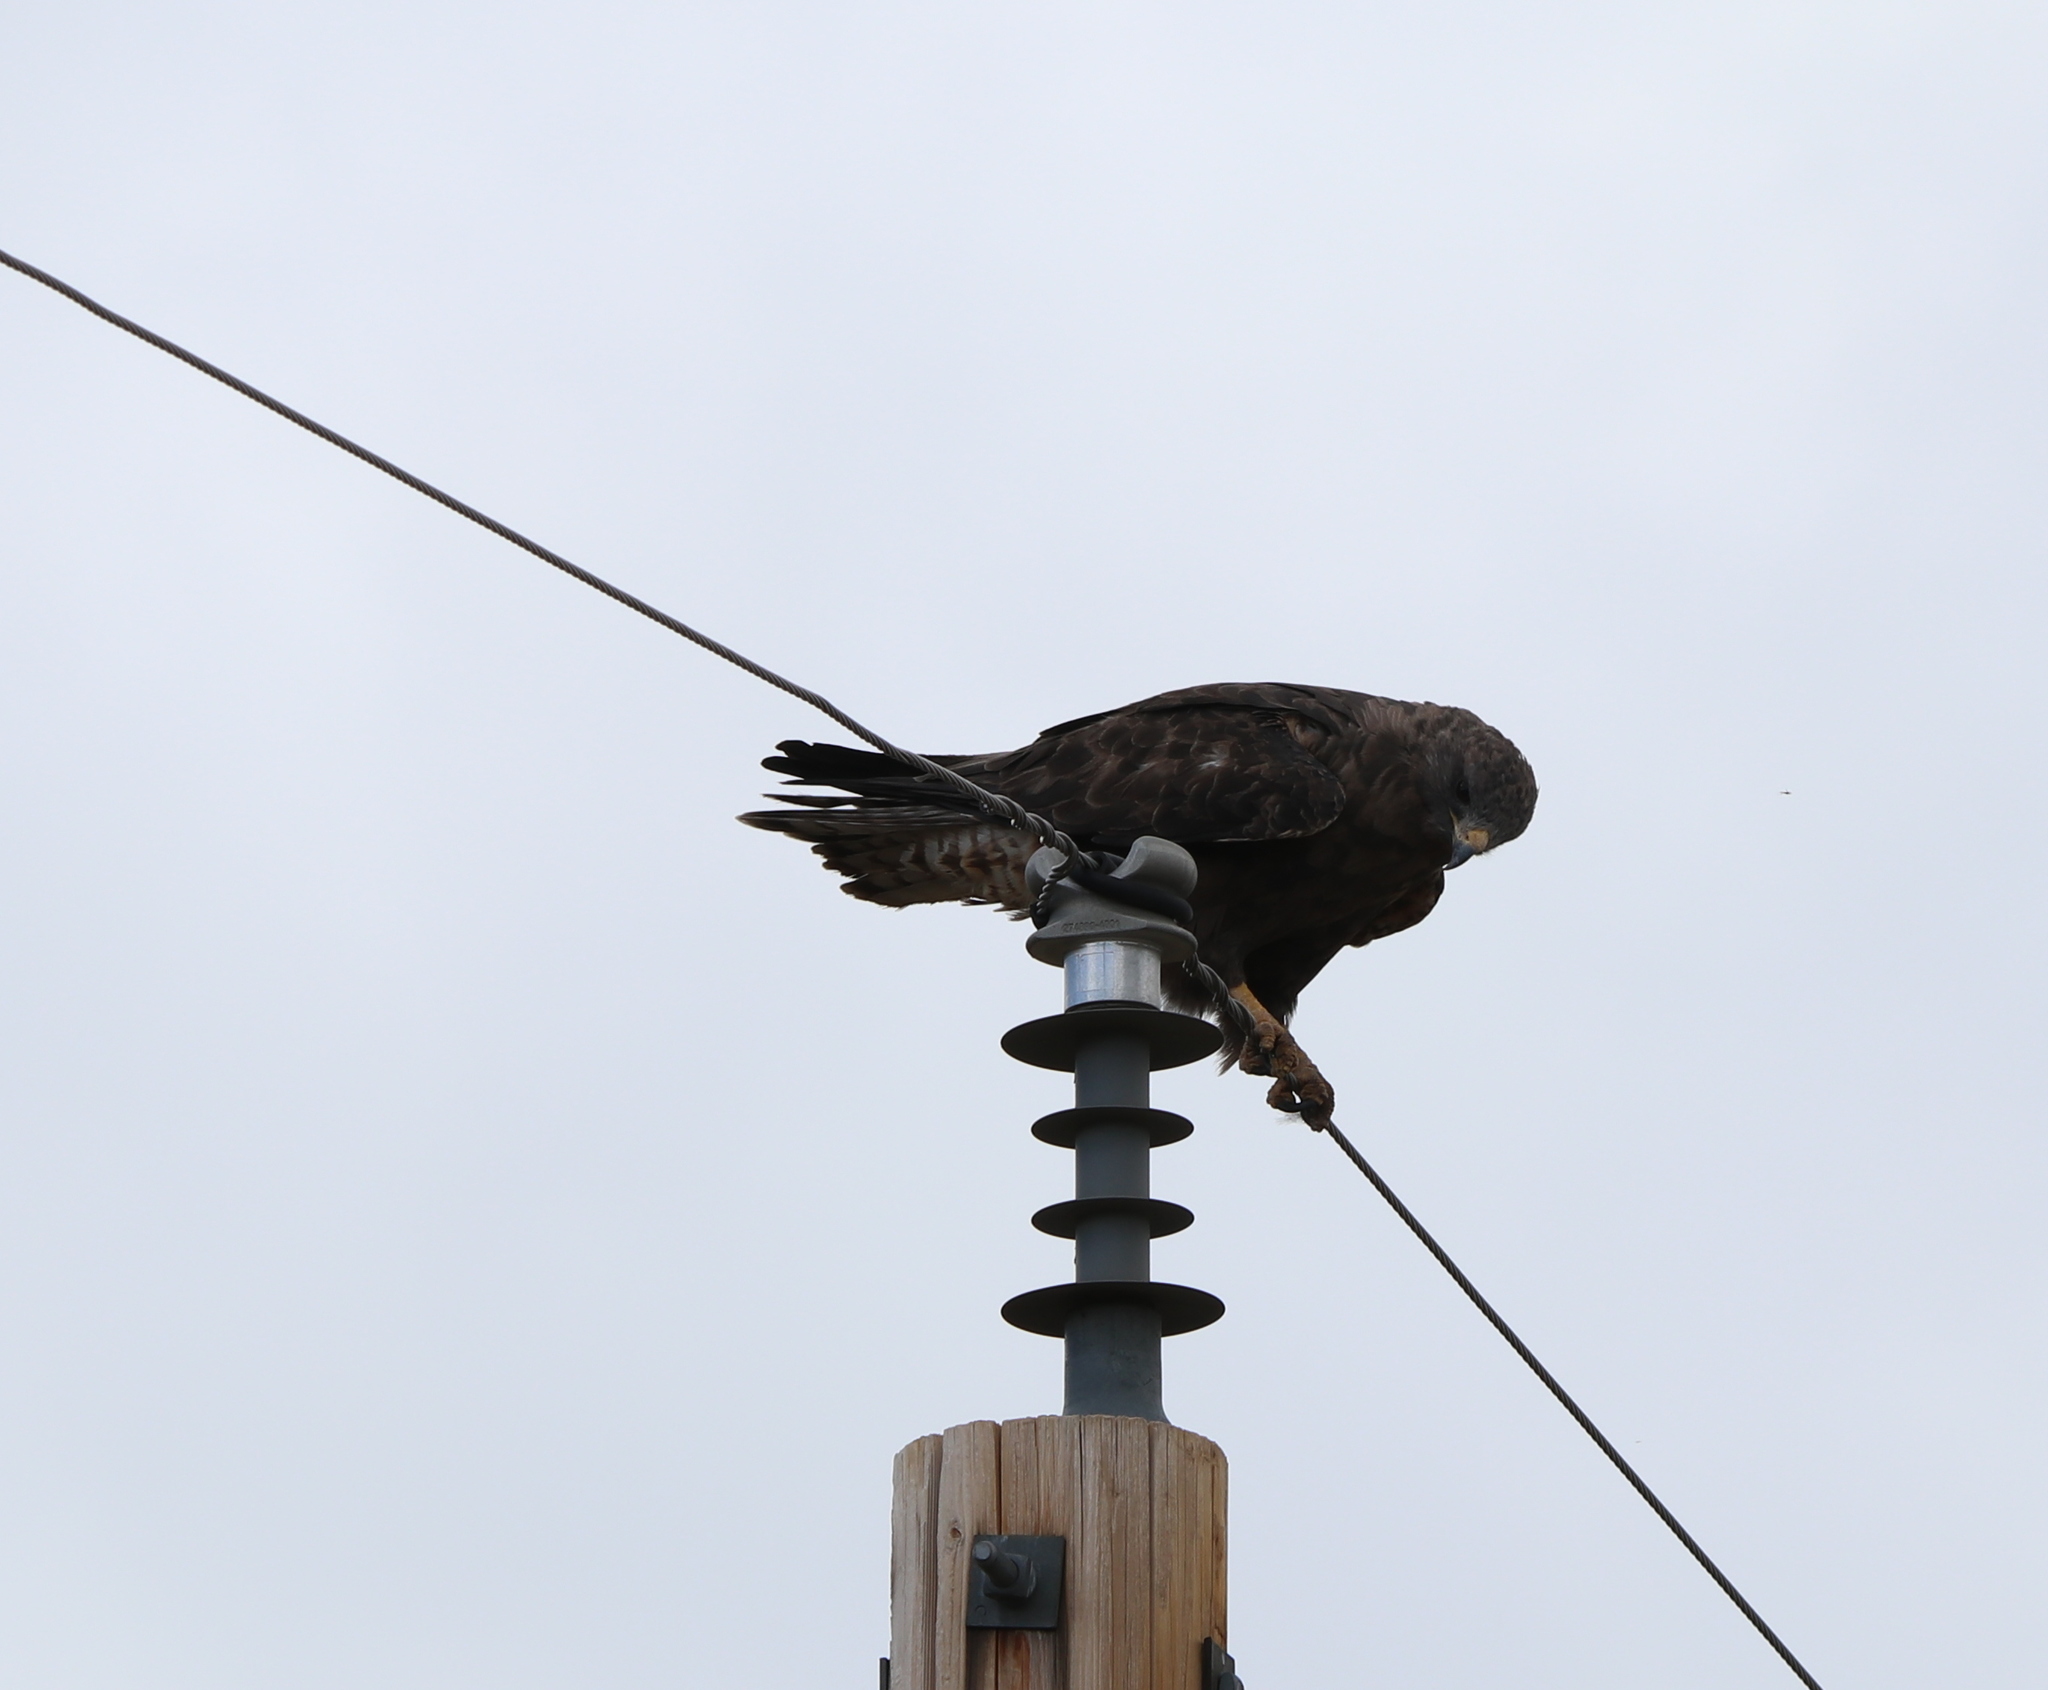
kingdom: Animalia
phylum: Chordata
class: Aves
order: Accipitriformes
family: Accipitridae
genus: Buteo
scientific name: Buteo regalis
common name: Ferruginous hawk
